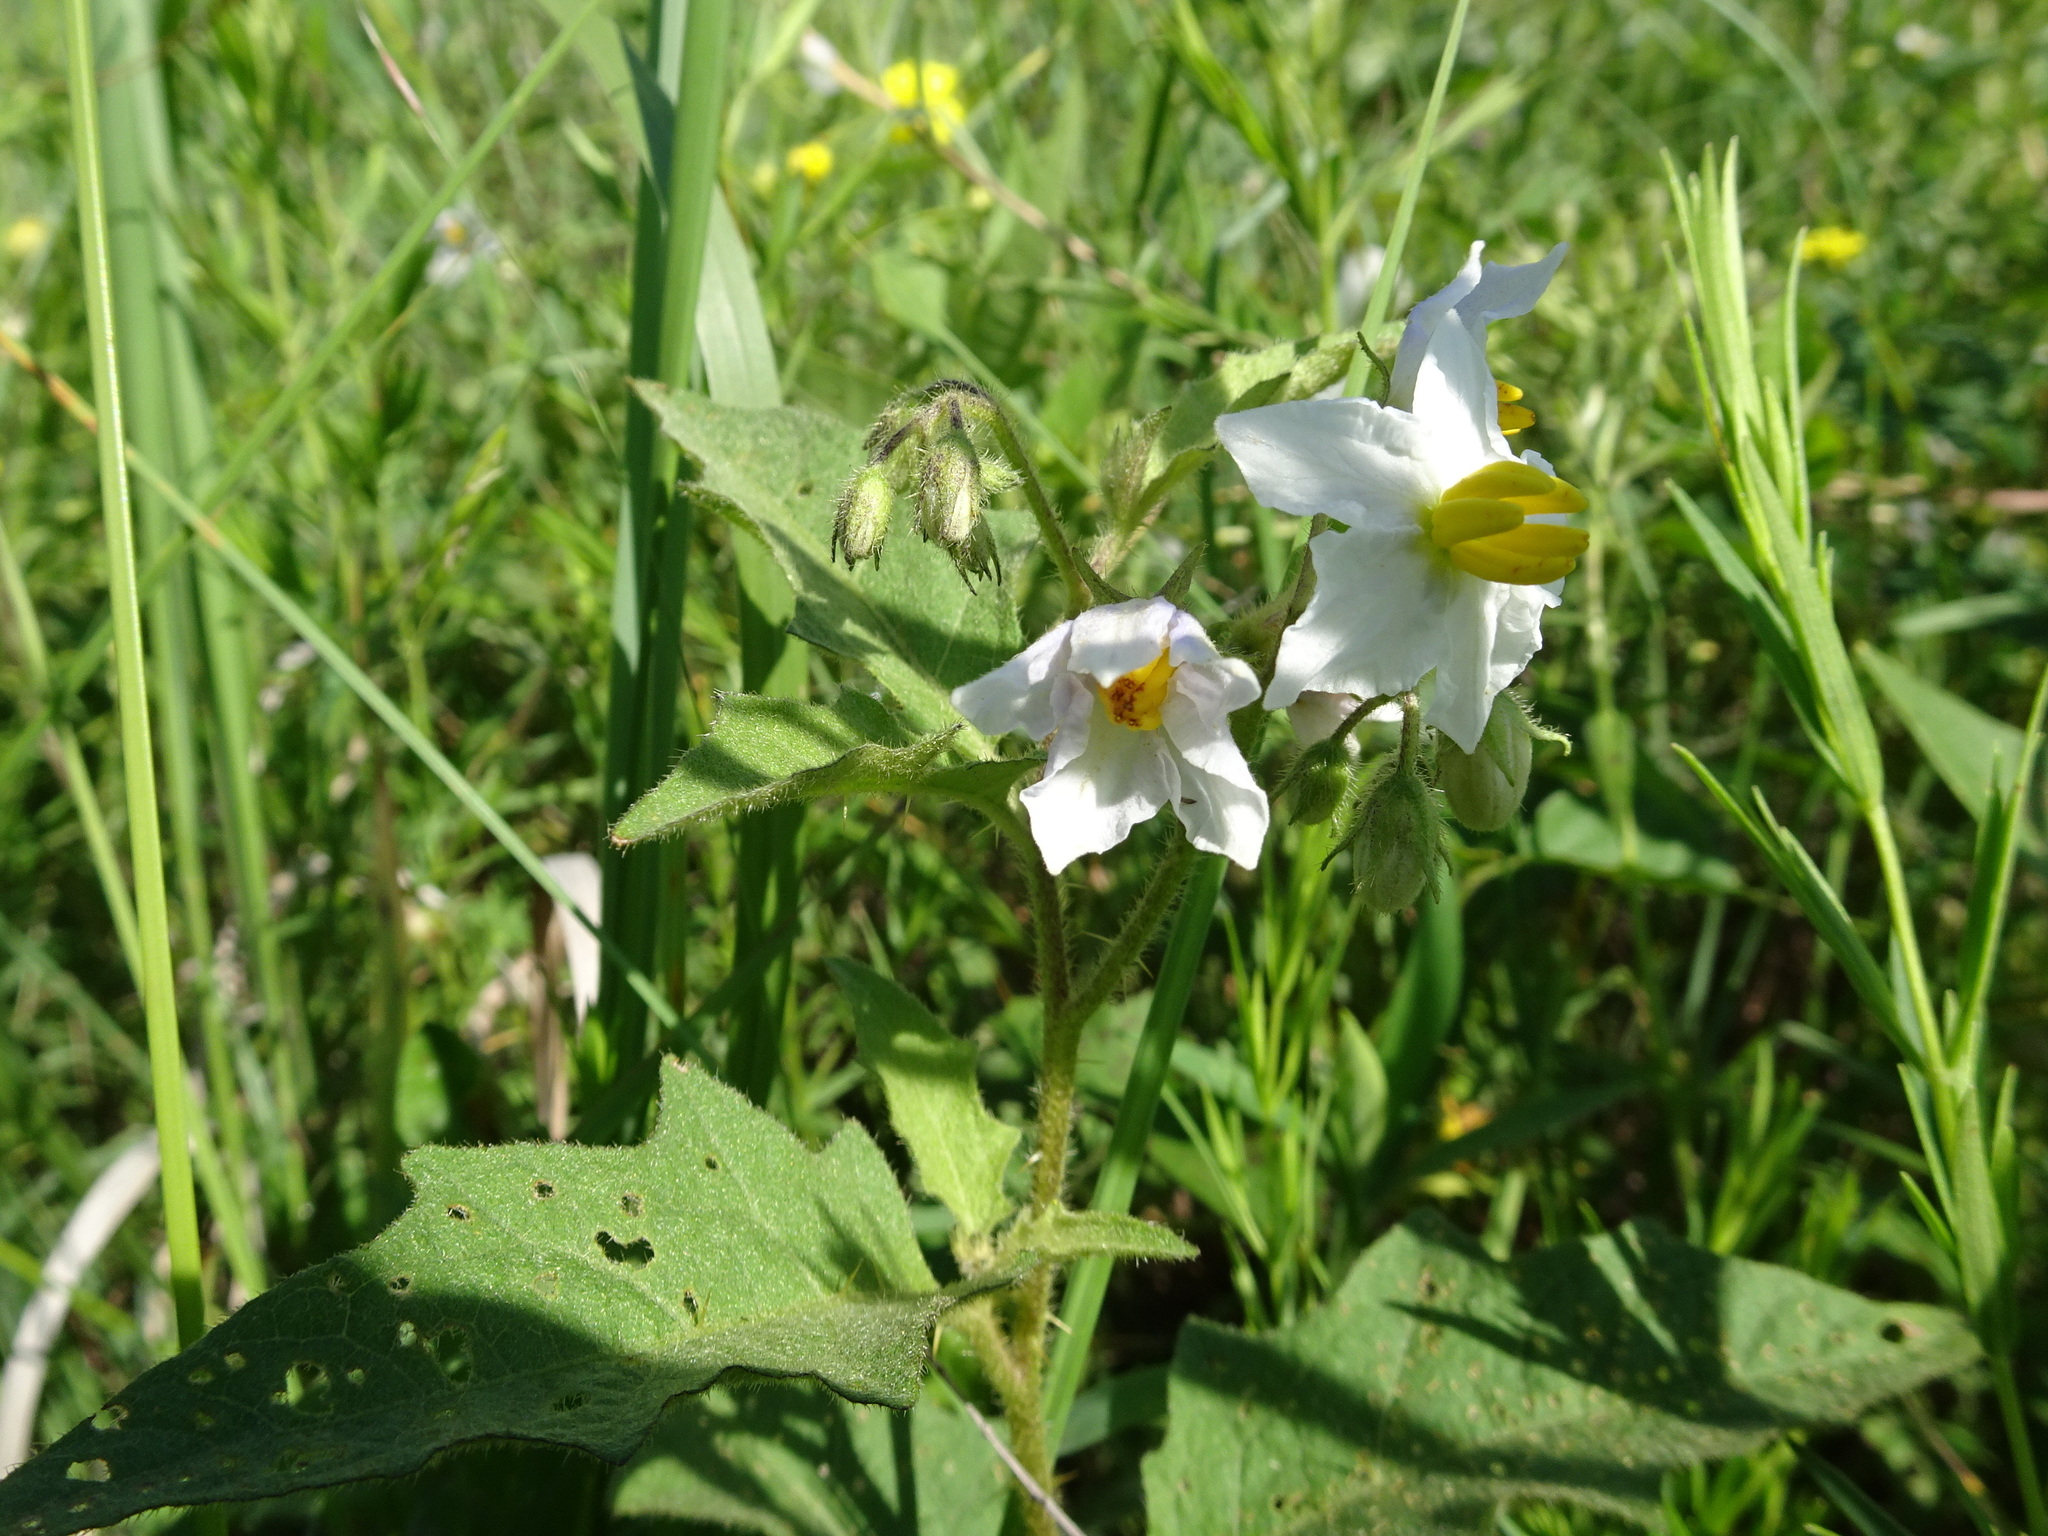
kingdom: Plantae
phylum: Tracheophyta
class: Magnoliopsida
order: Solanales
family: Solanaceae
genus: Solanum
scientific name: Solanum carolinense
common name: Horse-nettle
